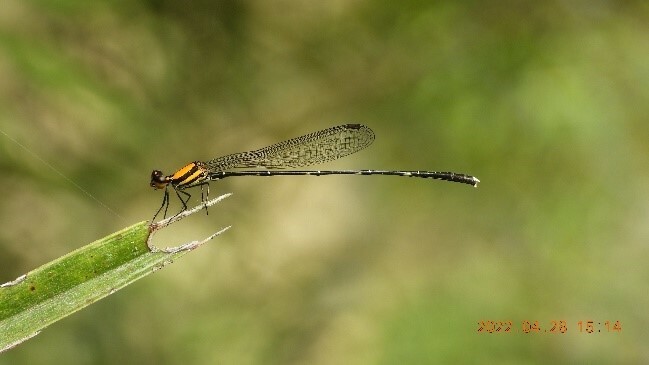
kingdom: Animalia
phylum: Arthropoda
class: Insecta
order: Odonata
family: Platycnemididae
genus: Prodasineura
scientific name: Prodasineura croconota
